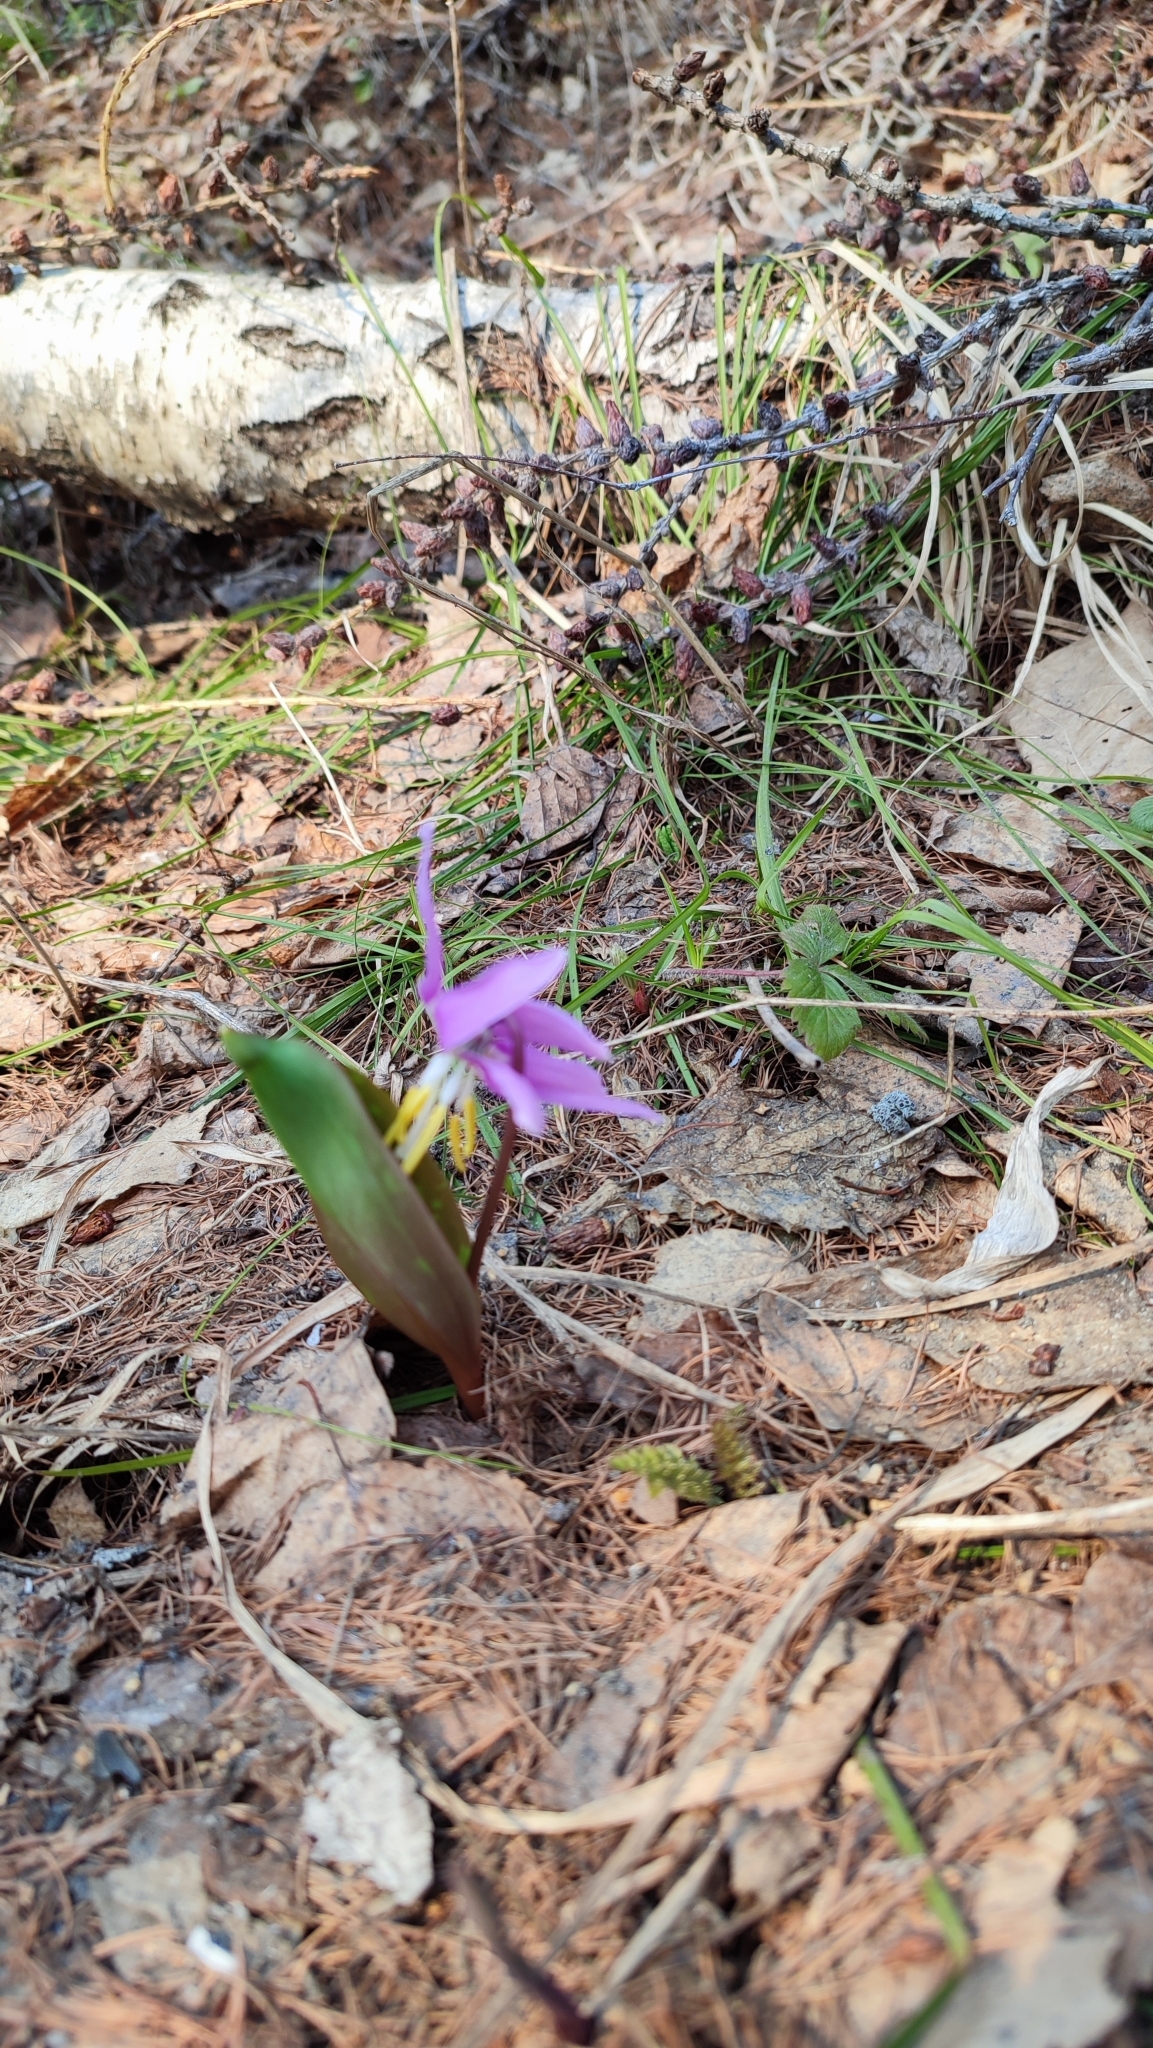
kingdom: Plantae
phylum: Tracheophyta
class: Liliopsida
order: Liliales
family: Liliaceae
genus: Erythronium
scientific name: Erythronium sibiricum
